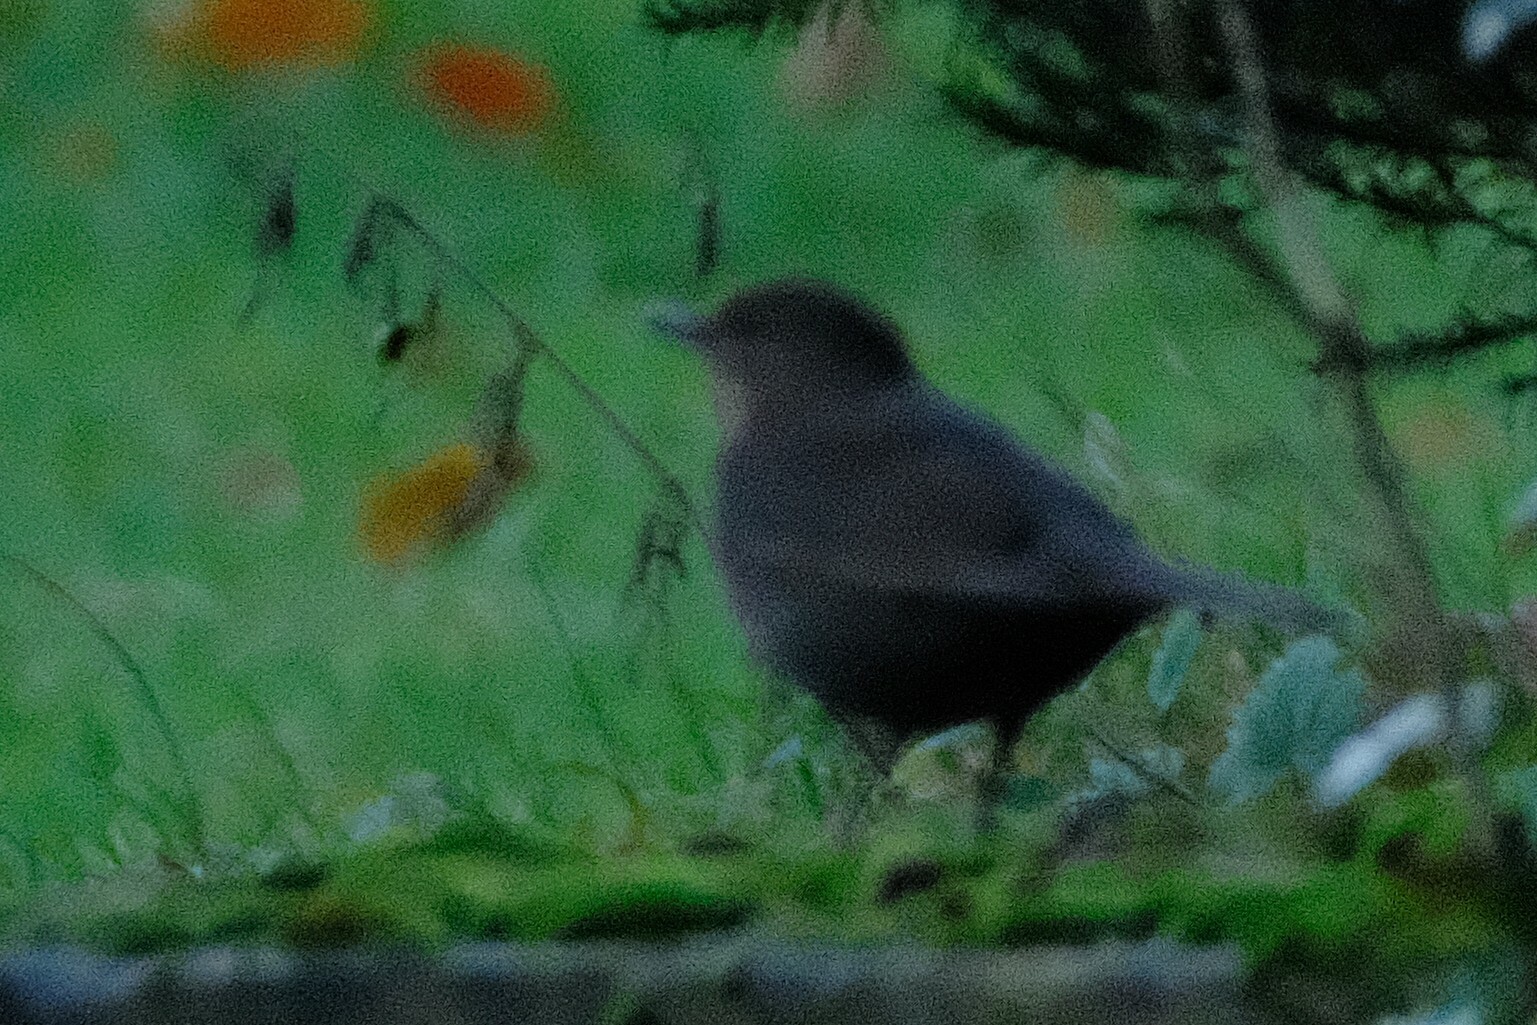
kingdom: Animalia
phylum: Chordata
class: Aves
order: Passeriformes
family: Turdidae
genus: Turdus
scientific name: Turdus merula
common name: Common blackbird
